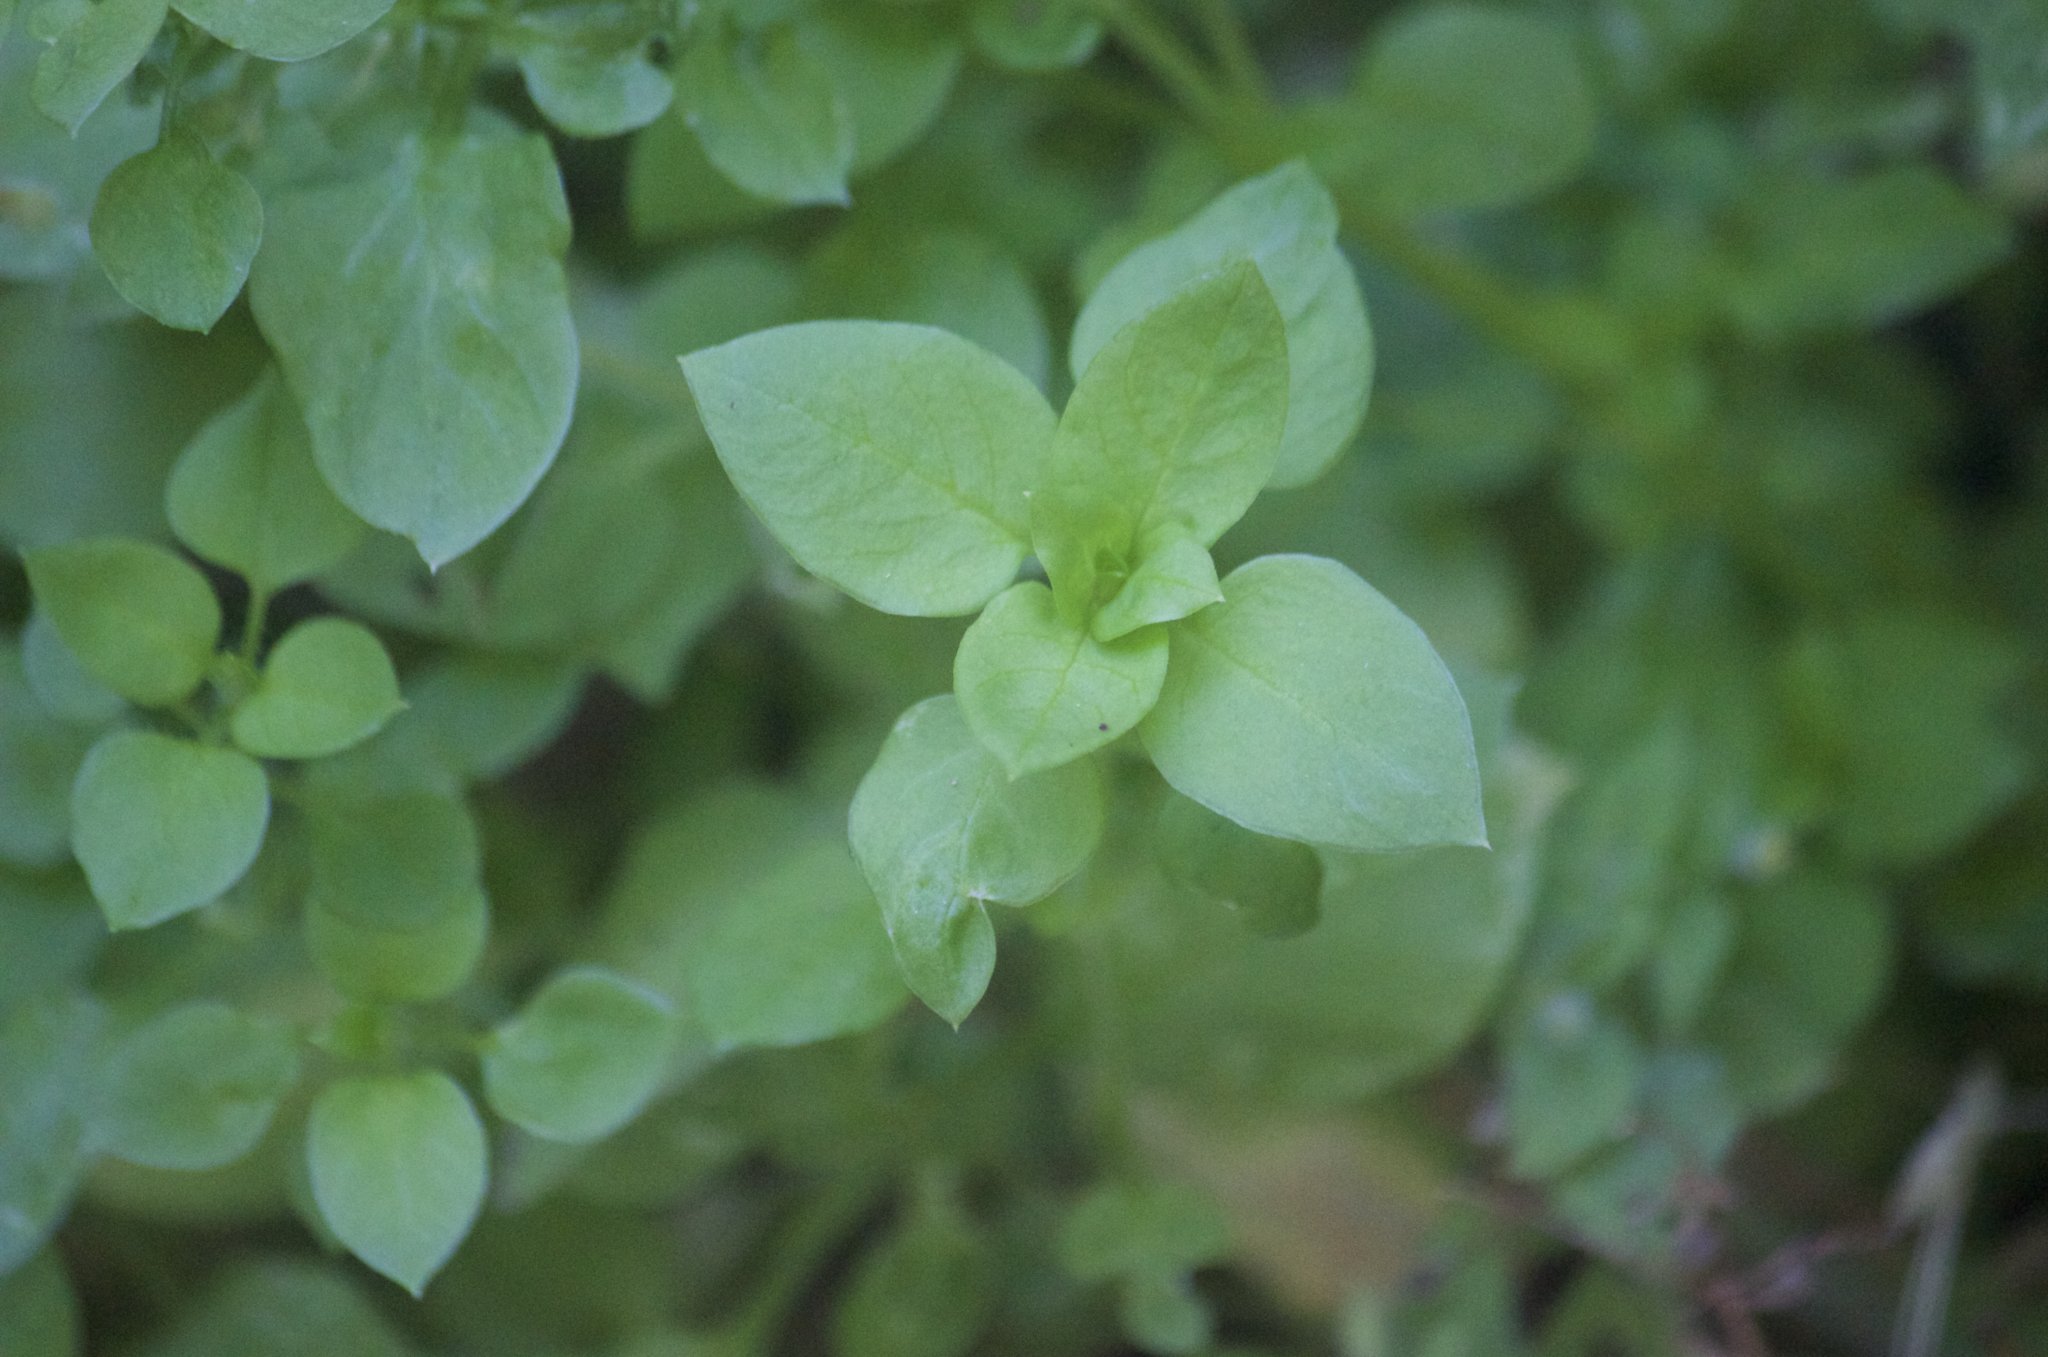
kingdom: Plantae
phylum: Tracheophyta
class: Magnoliopsida
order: Caryophyllales
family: Caryophyllaceae
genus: Stellaria
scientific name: Stellaria media
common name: Common chickweed
